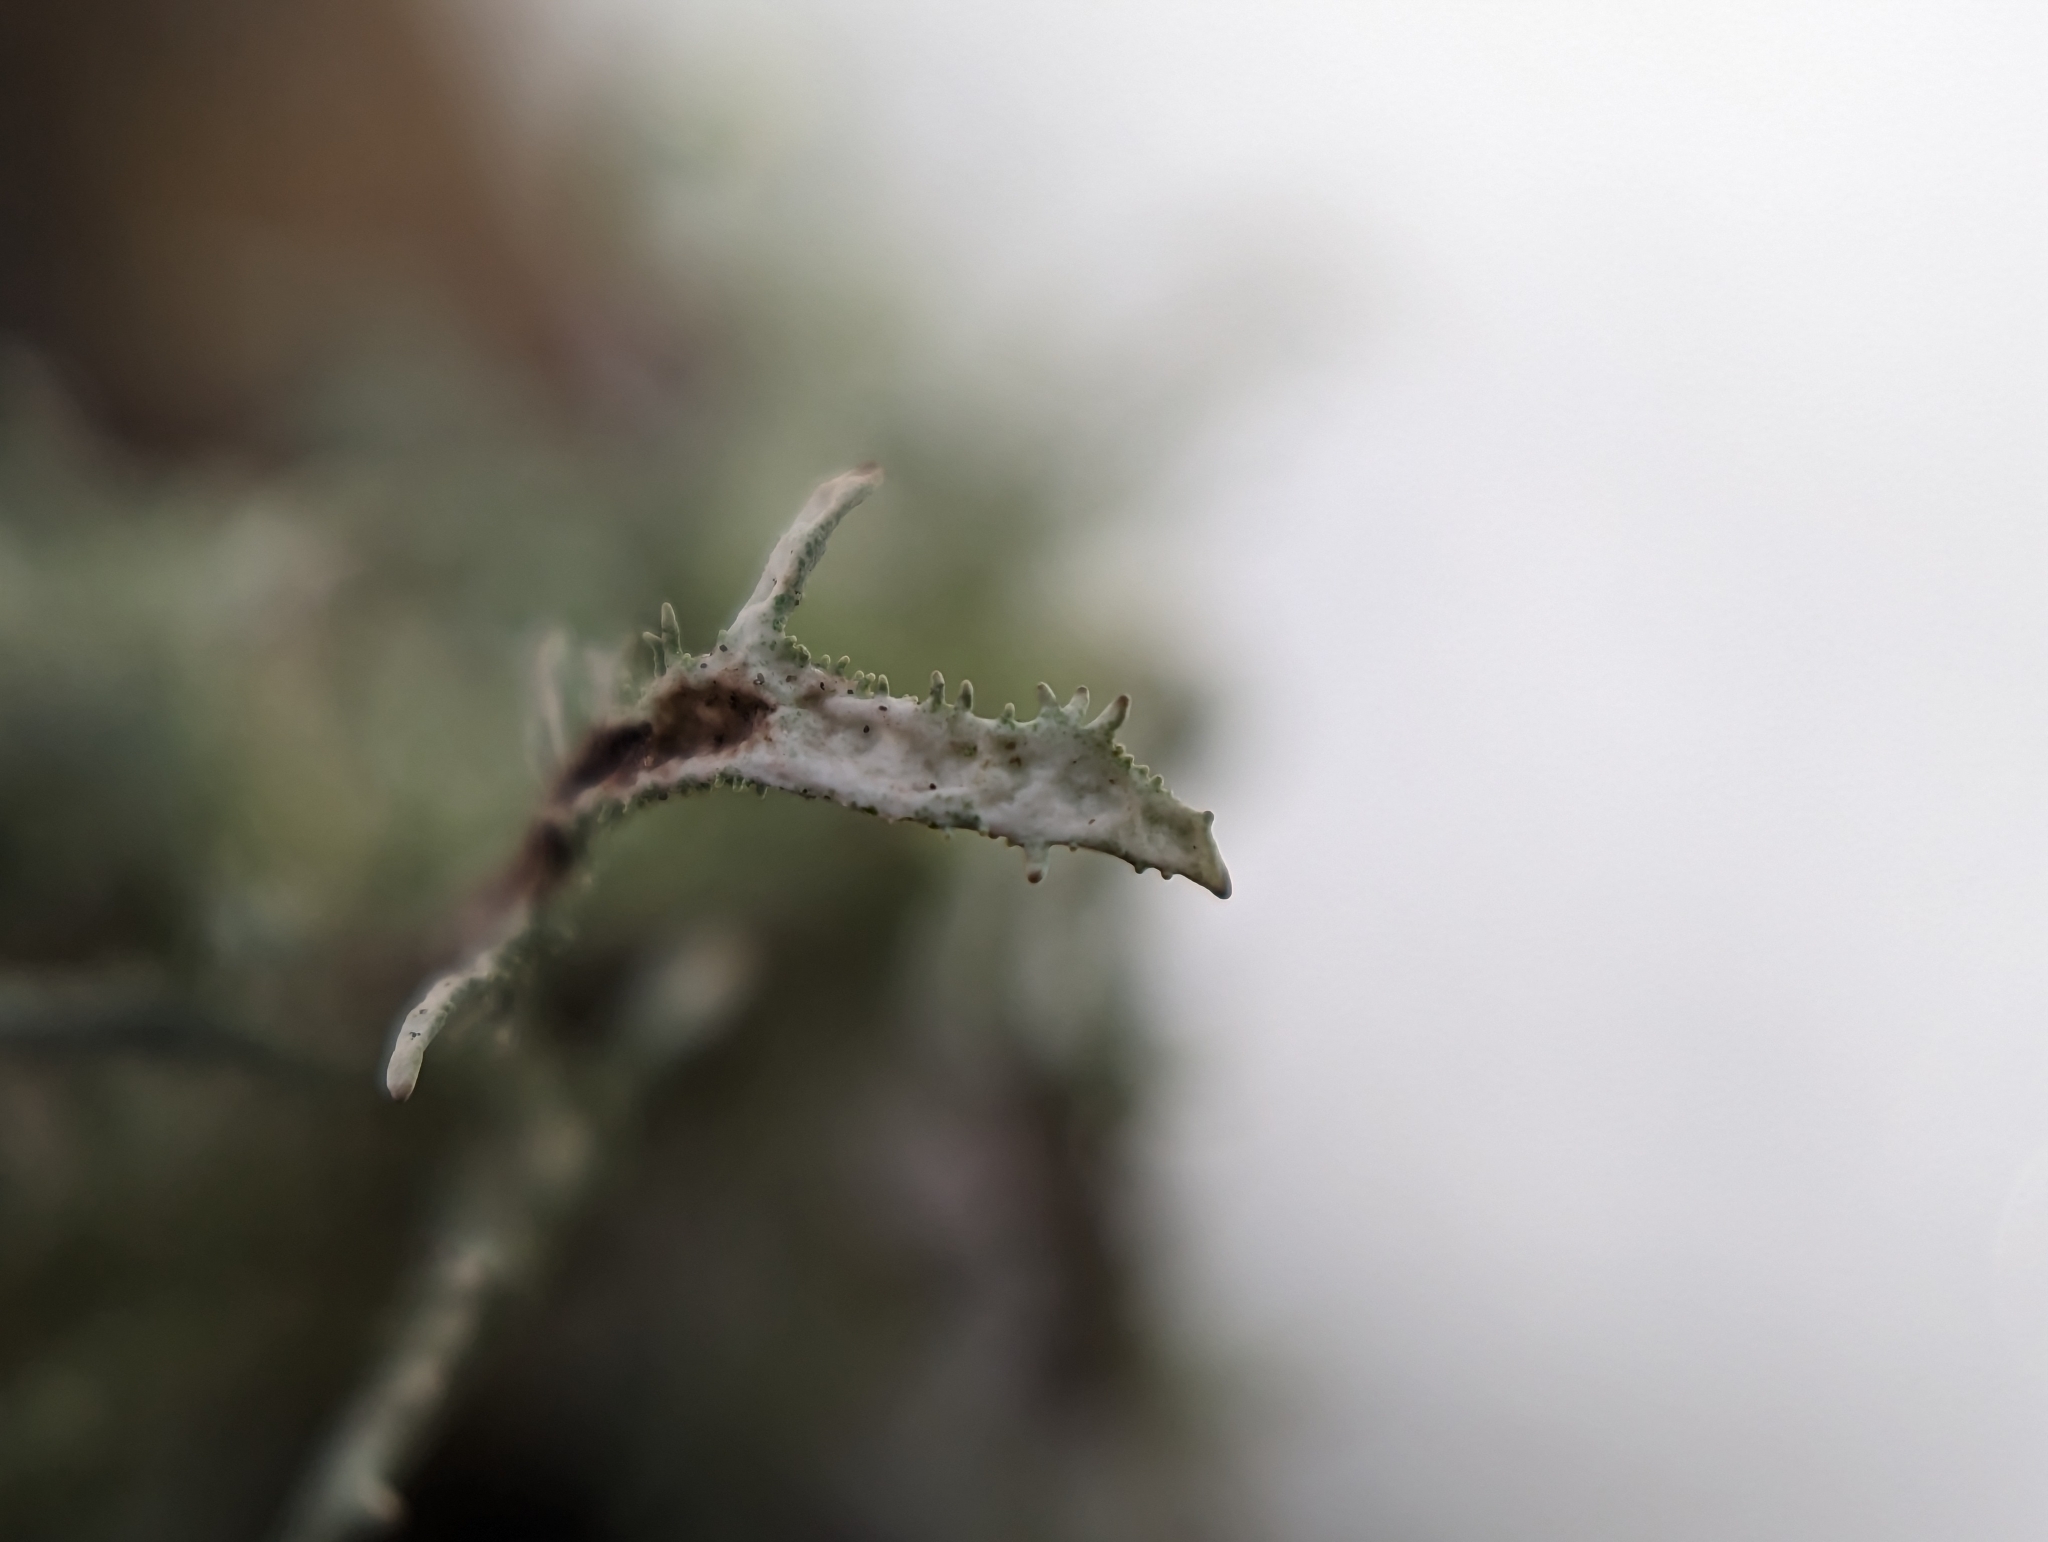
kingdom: Fungi
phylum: Ascomycota
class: Lecanoromycetes
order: Lecanorales
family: Parmeliaceae
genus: Pseudevernia
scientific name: Pseudevernia furfuracea
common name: Tree moss
